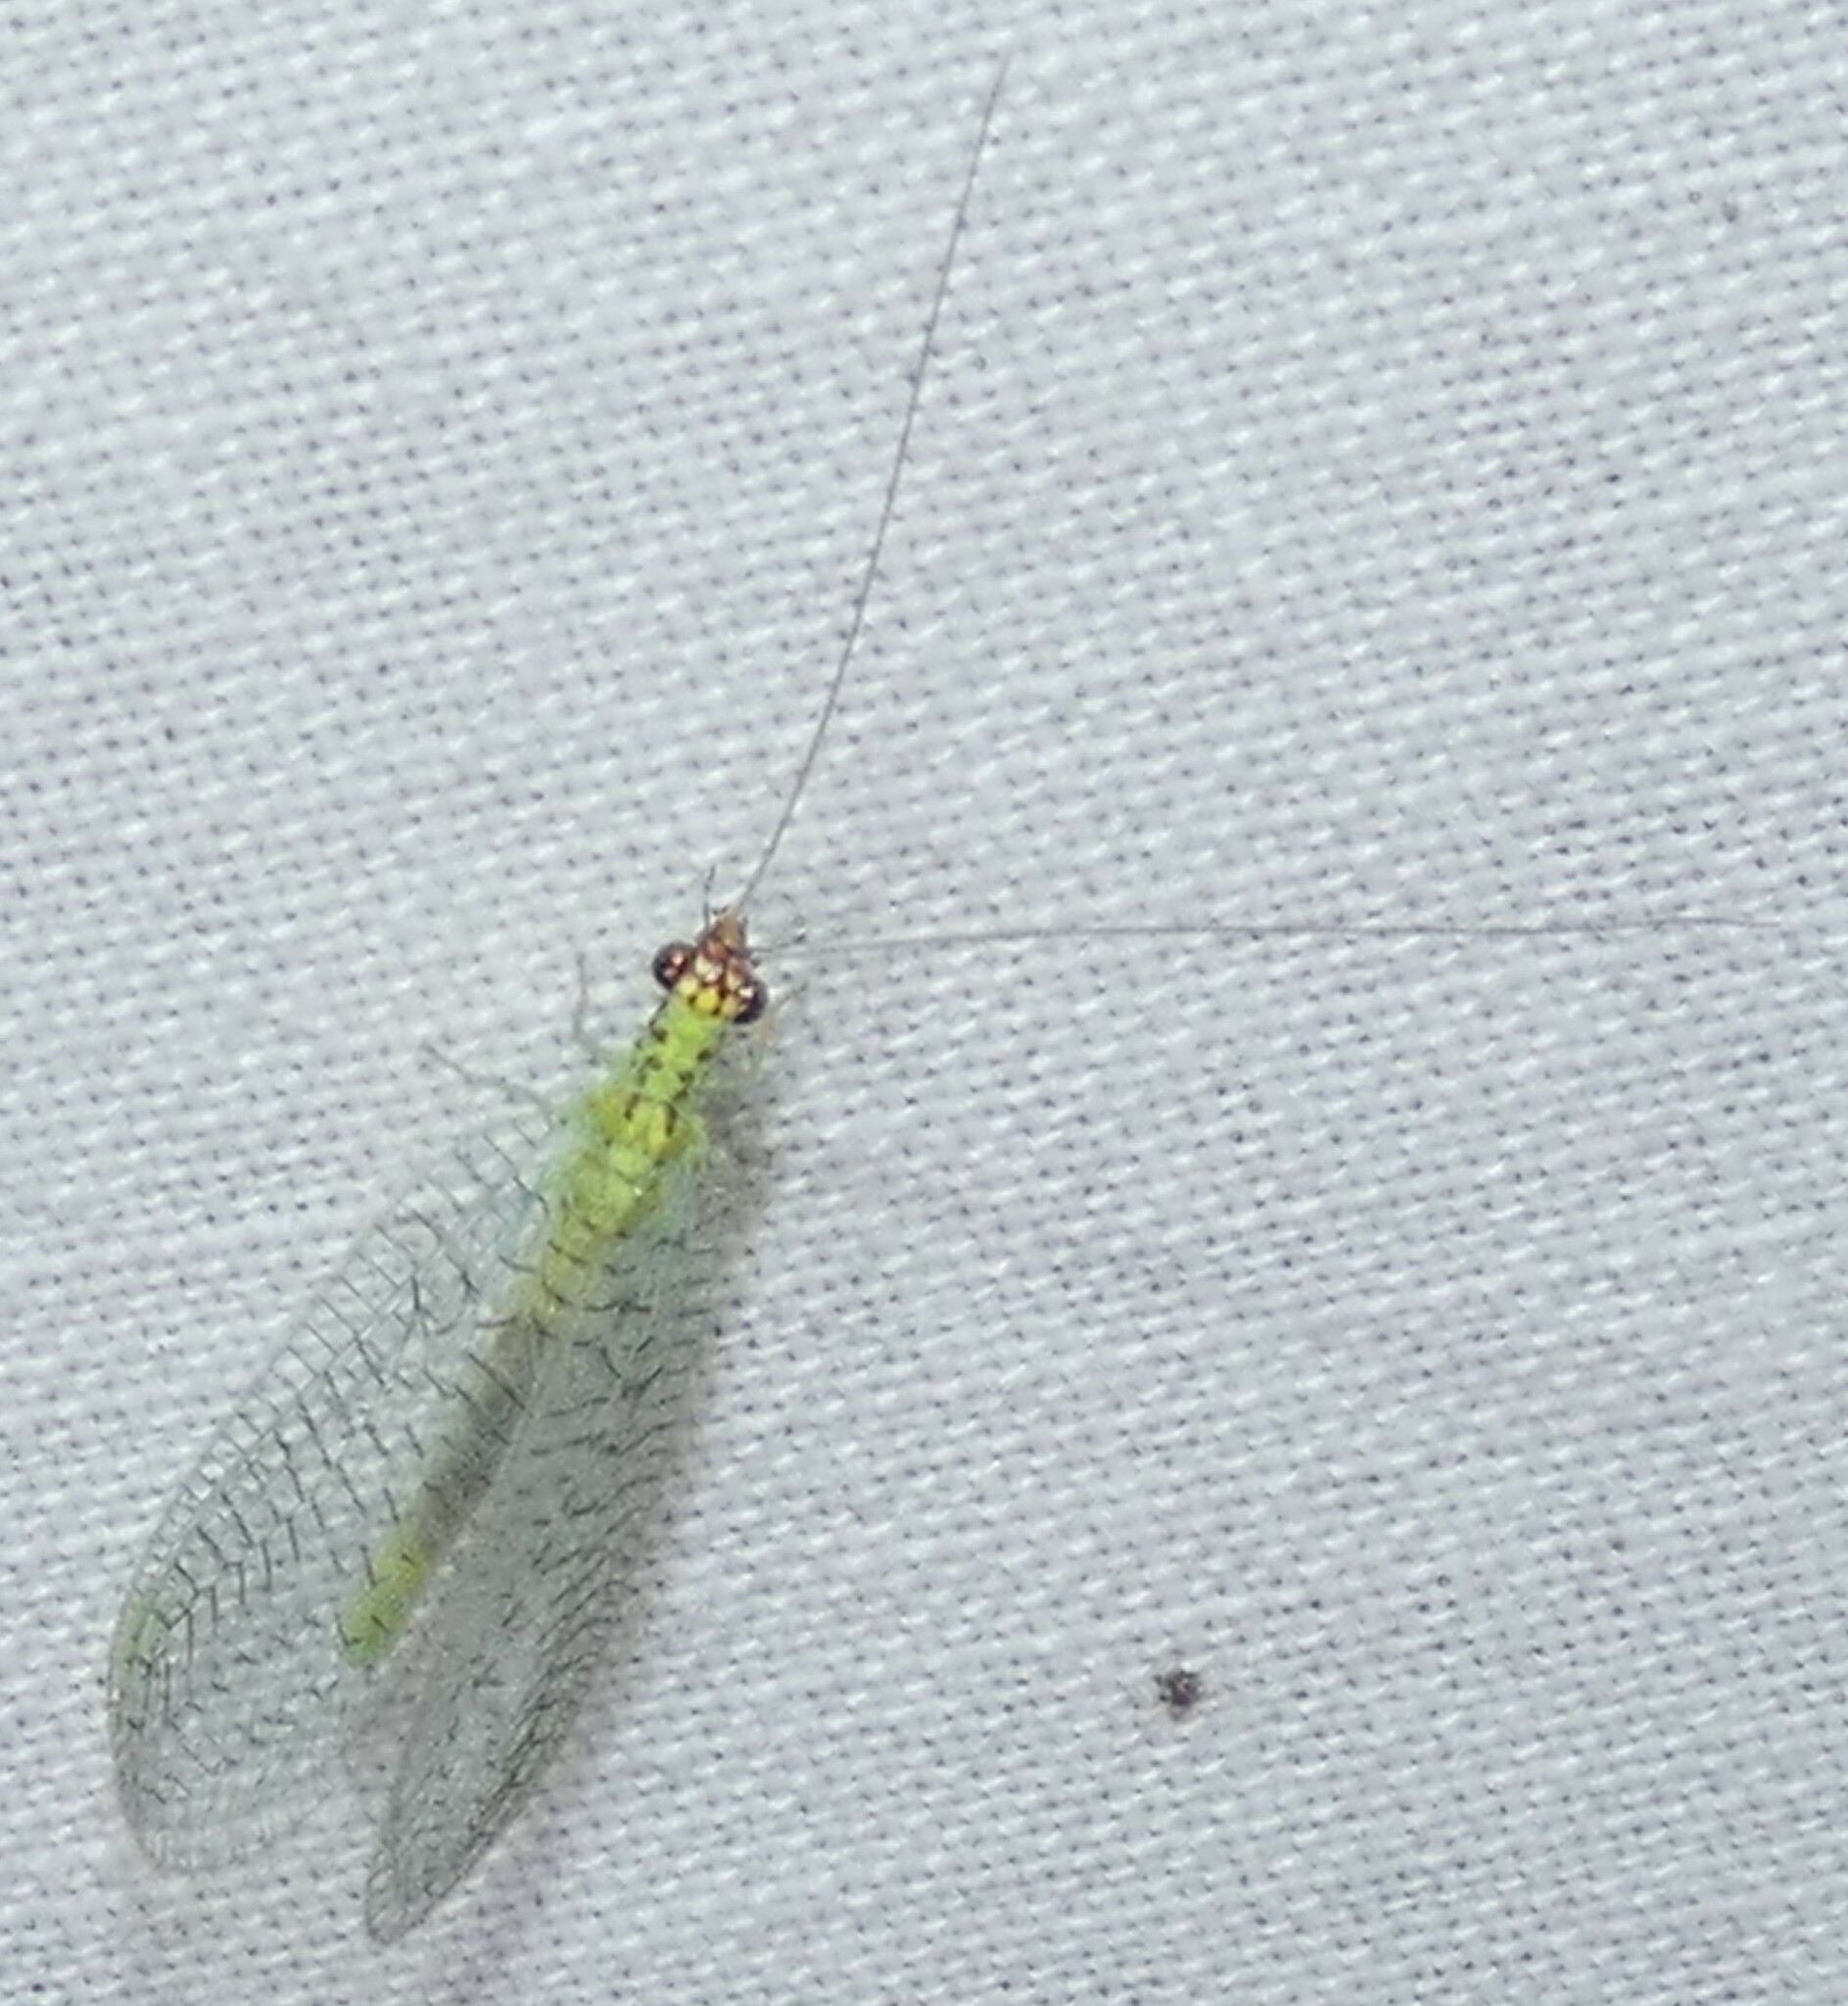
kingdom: Animalia
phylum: Arthropoda
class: Insecta
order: Neuroptera
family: Chrysopidae
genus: Chrysopa
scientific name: Chrysopa oculata
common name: Golden-eyed lacewing
